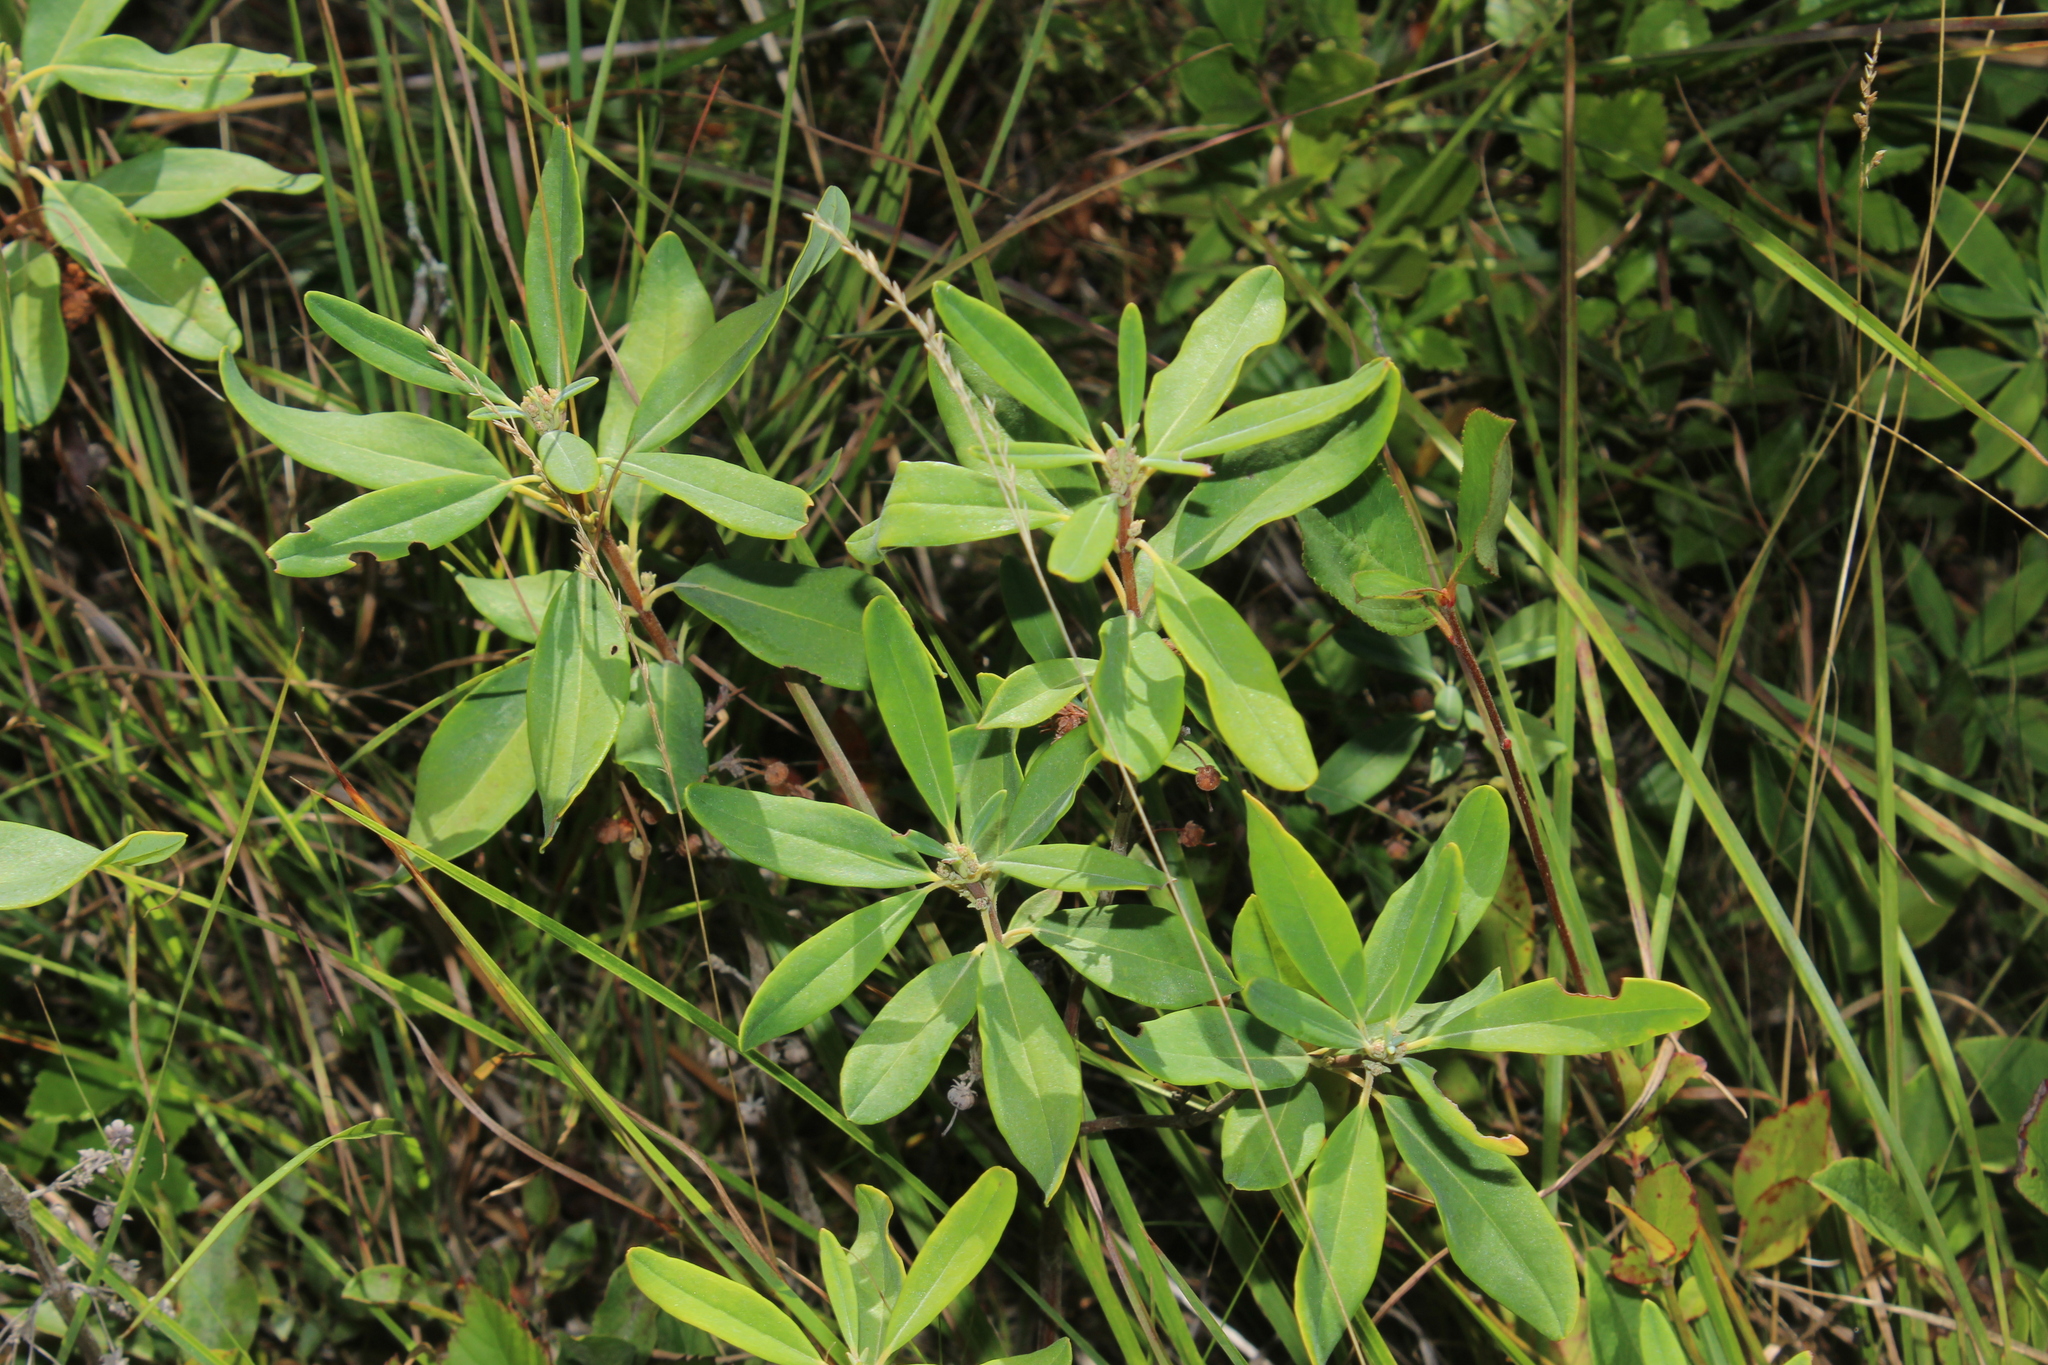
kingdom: Plantae
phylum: Tracheophyta
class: Magnoliopsida
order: Ericales
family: Ericaceae
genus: Kalmia
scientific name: Kalmia angustifolia
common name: Sheep-laurel
